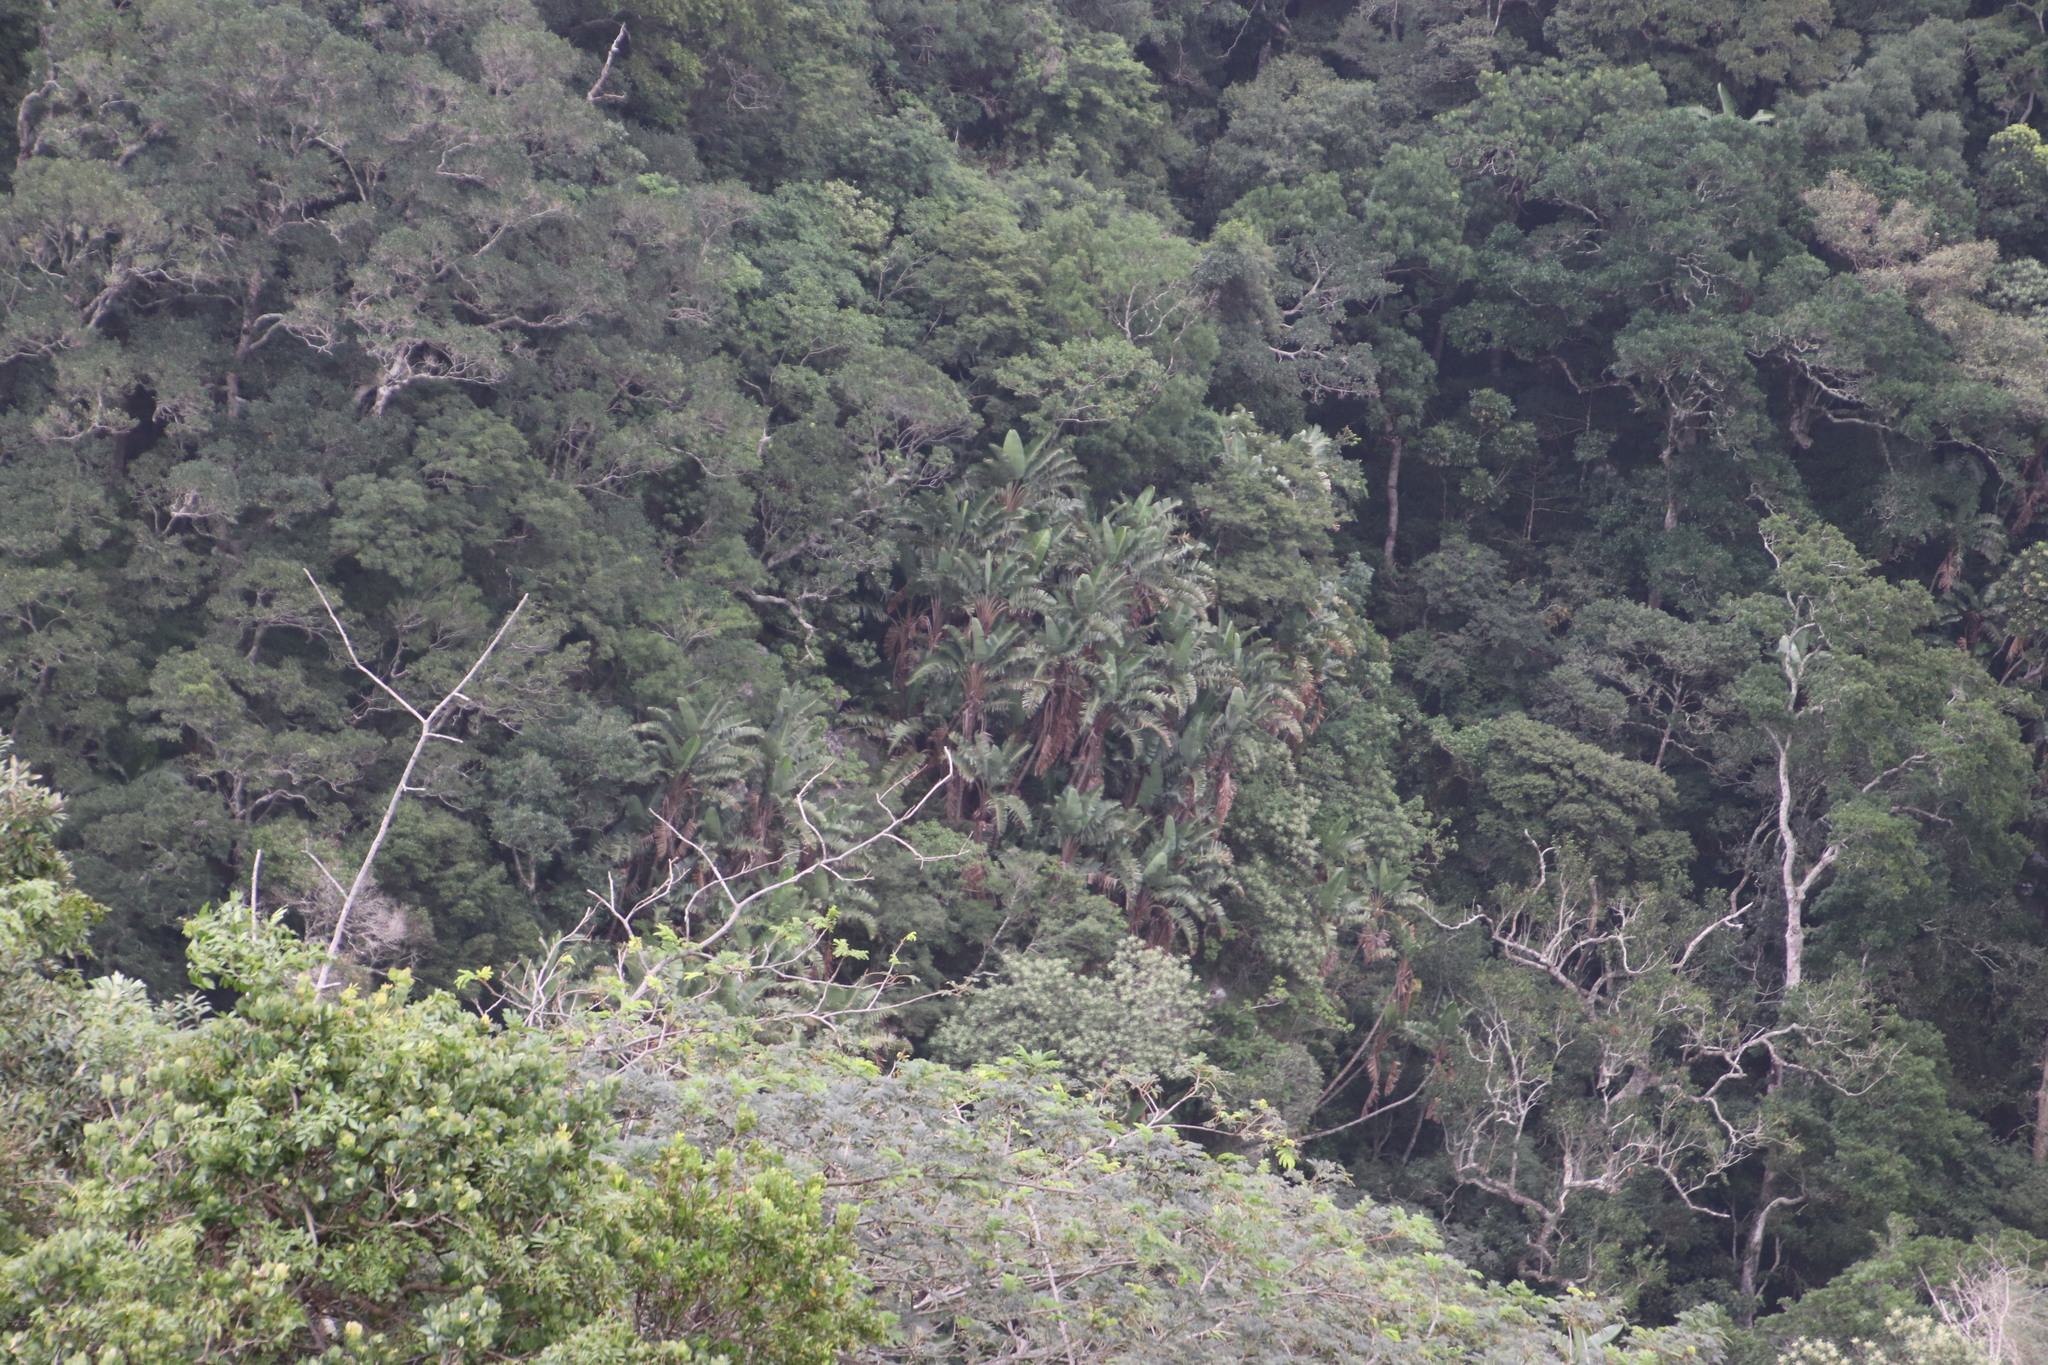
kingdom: Plantae
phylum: Tracheophyta
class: Liliopsida
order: Zingiberales
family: Strelitziaceae
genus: Strelitzia
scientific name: Strelitzia nicolai
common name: Bird-of-paradise tree
